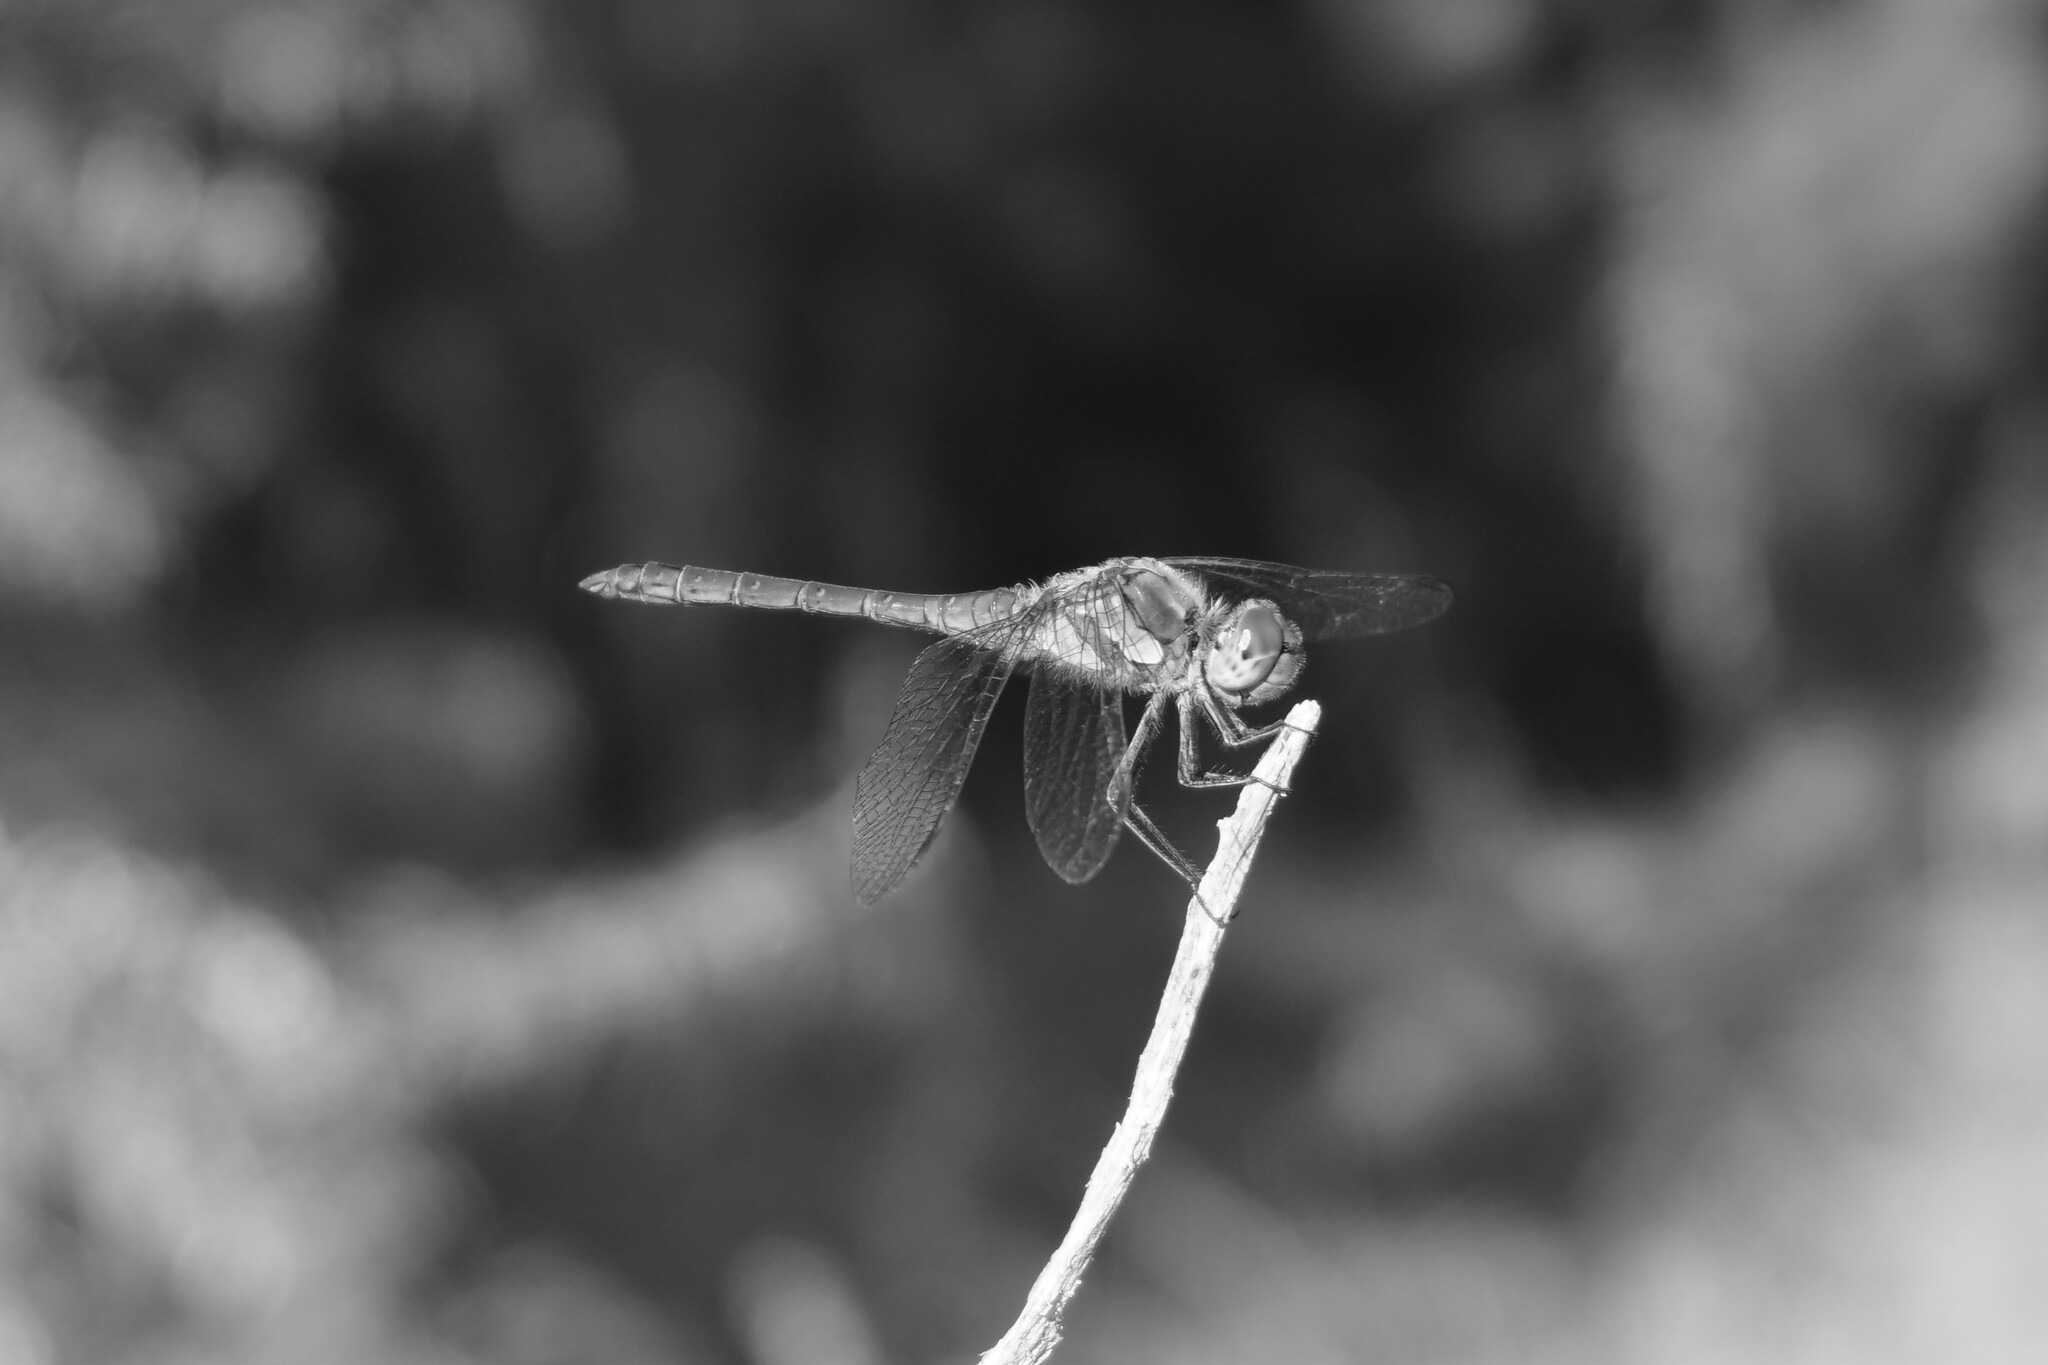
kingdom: Animalia
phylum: Arthropoda
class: Insecta
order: Odonata
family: Libellulidae
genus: Sympetrum
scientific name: Sympetrum striolatum
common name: Common darter
